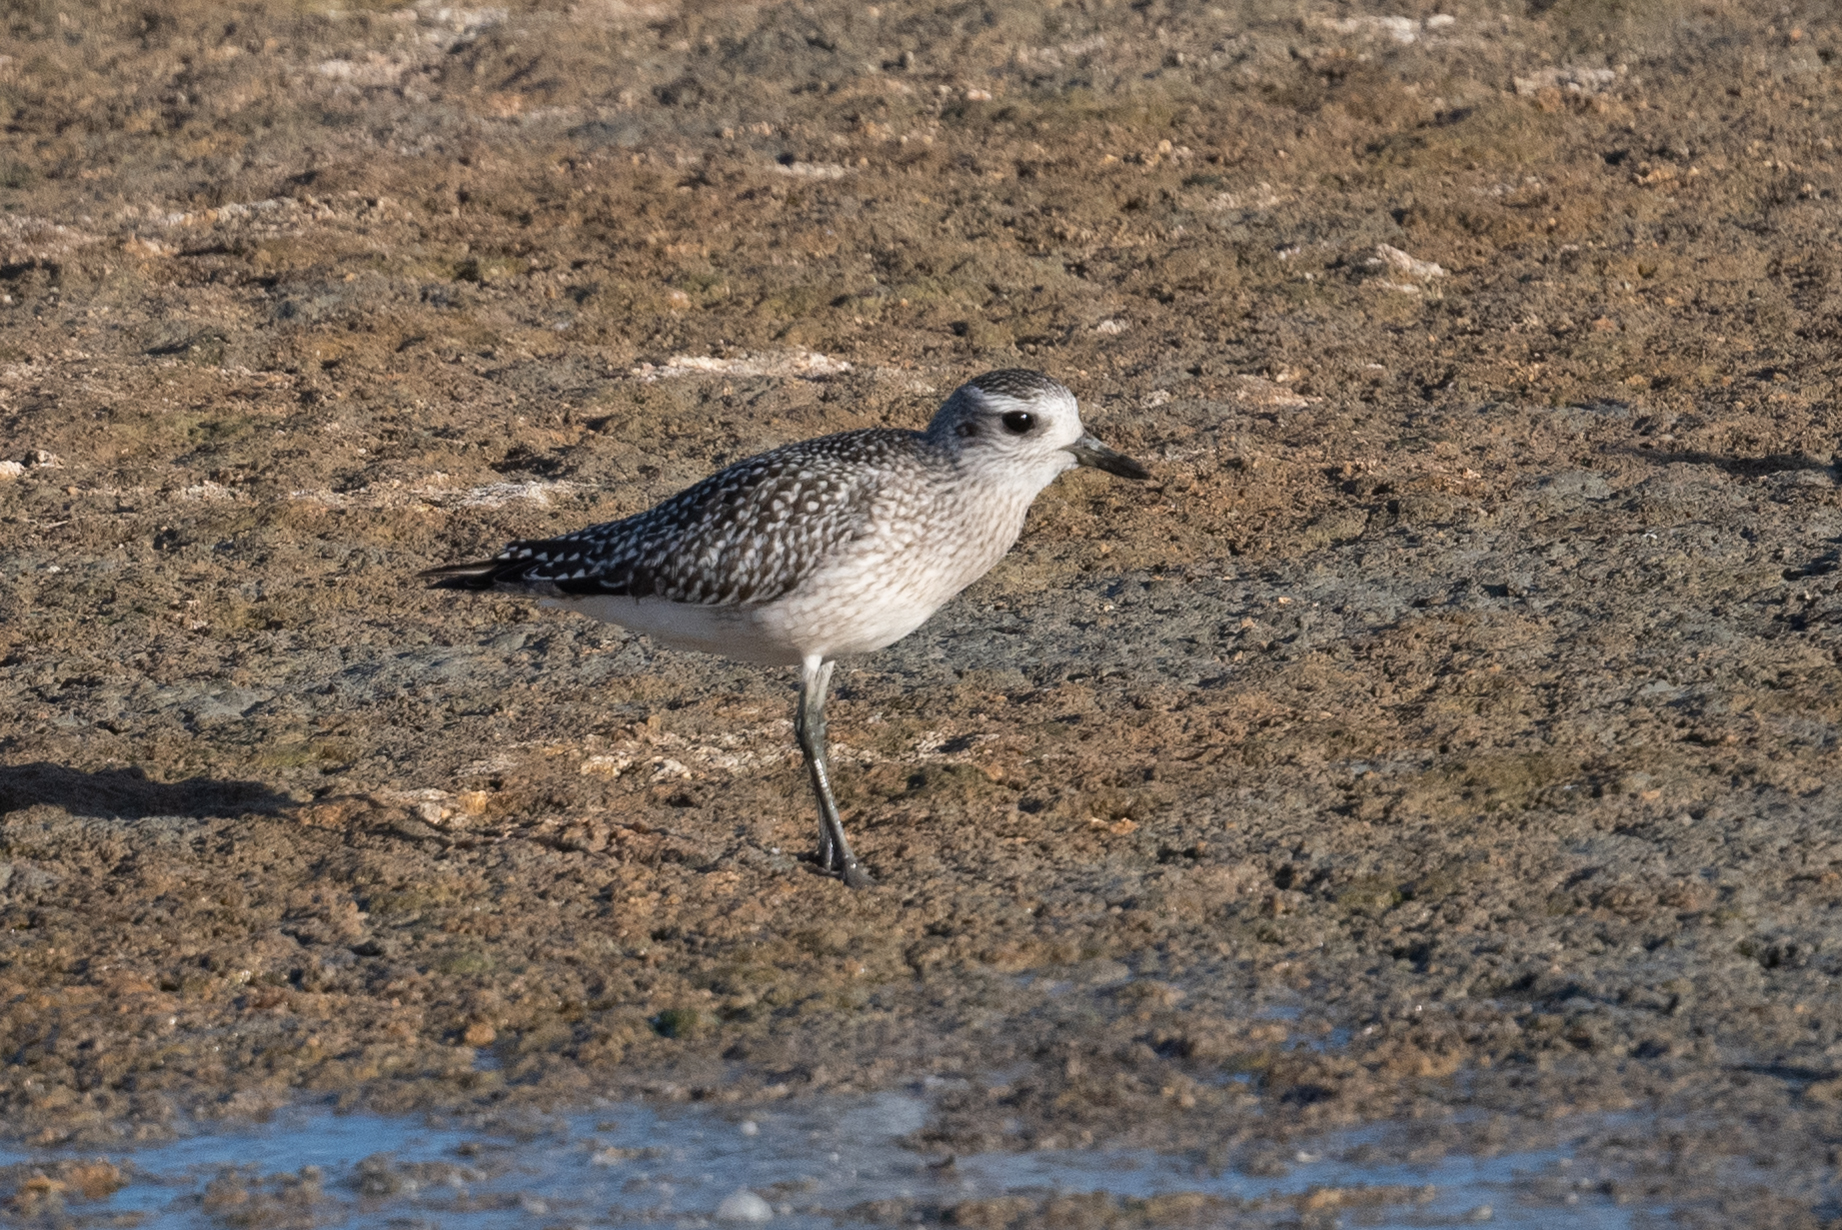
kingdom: Animalia
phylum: Chordata
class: Aves
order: Charadriiformes
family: Charadriidae
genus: Pluvialis
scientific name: Pluvialis squatarola
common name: Grey plover
